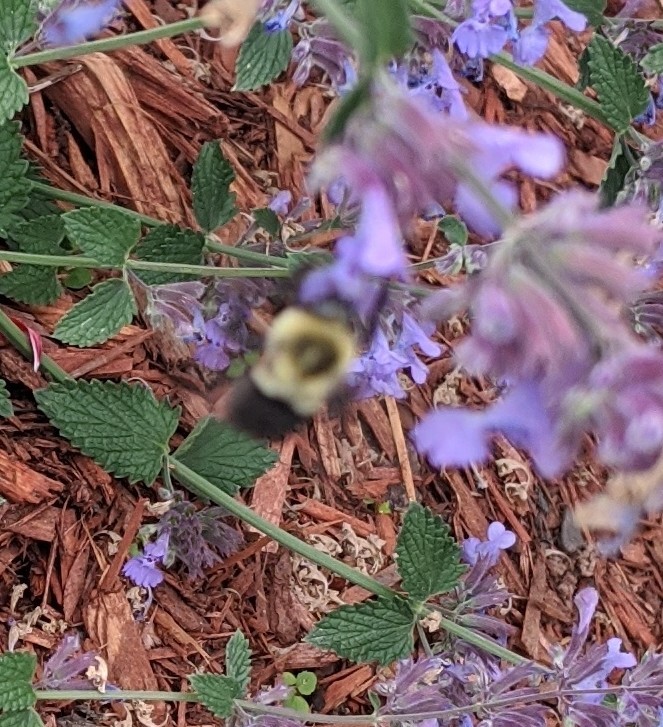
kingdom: Animalia
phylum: Arthropoda
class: Insecta
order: Hymenoptera
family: Apidae
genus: Bombus
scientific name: Bombus impatiens
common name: Common eastern bumble bee
